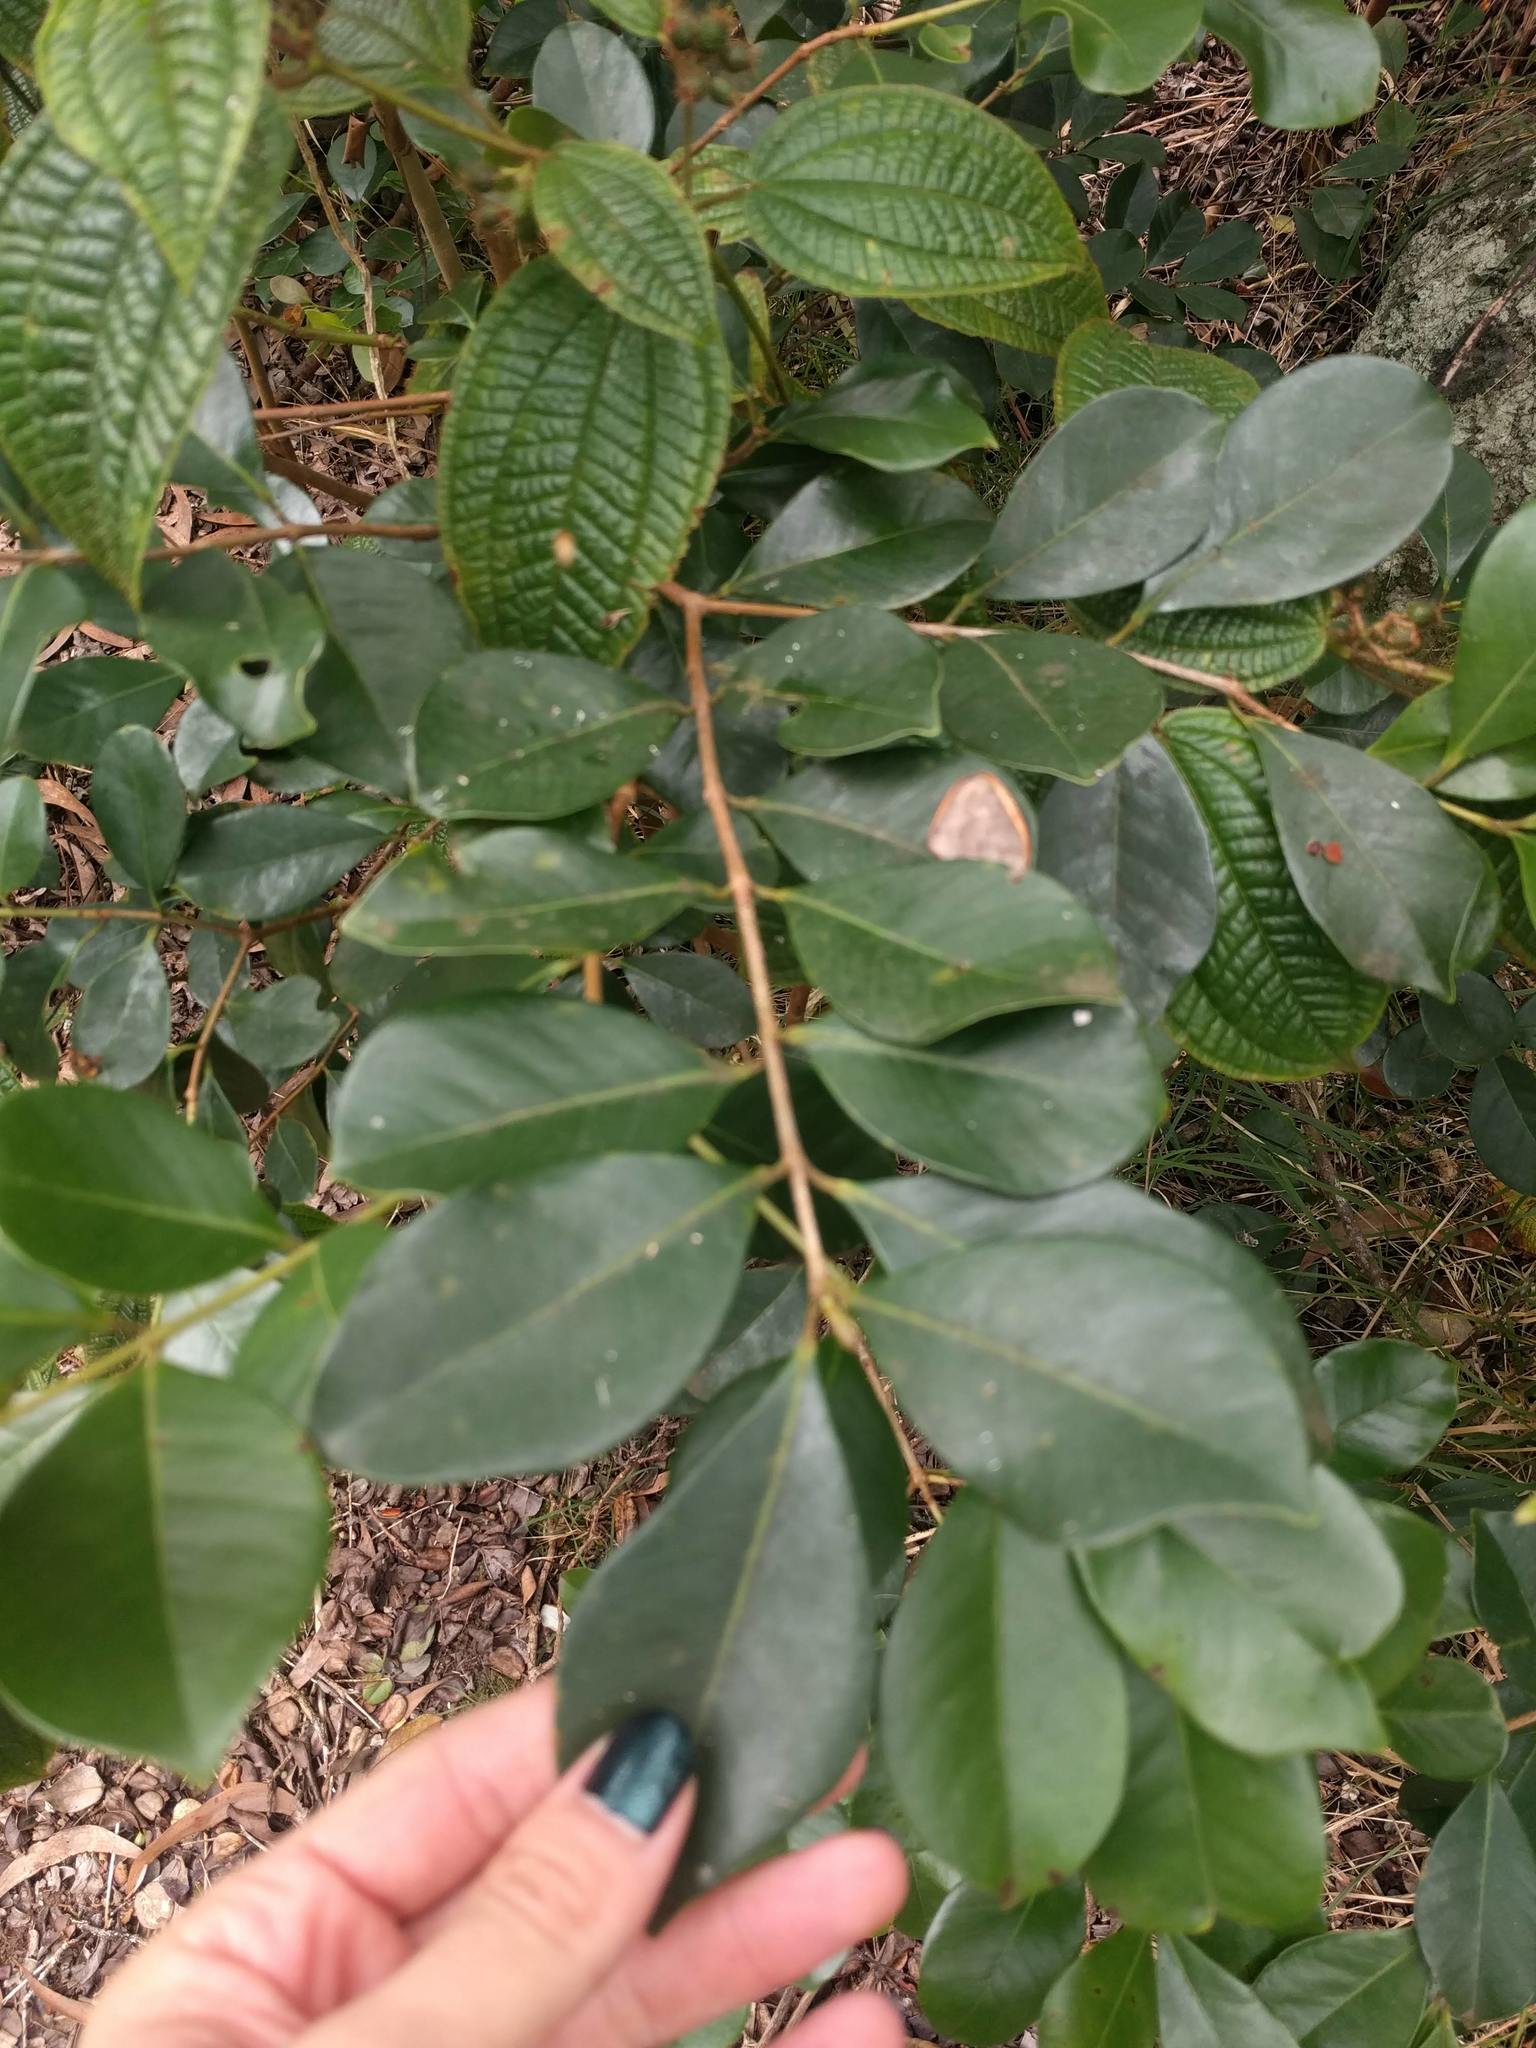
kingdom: Plantae
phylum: Tracheophyta
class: Magnoliopsida
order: Myrtales
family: Myrtaceae
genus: Psidium
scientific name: Psidium cattleianum
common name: Strawberry guava
